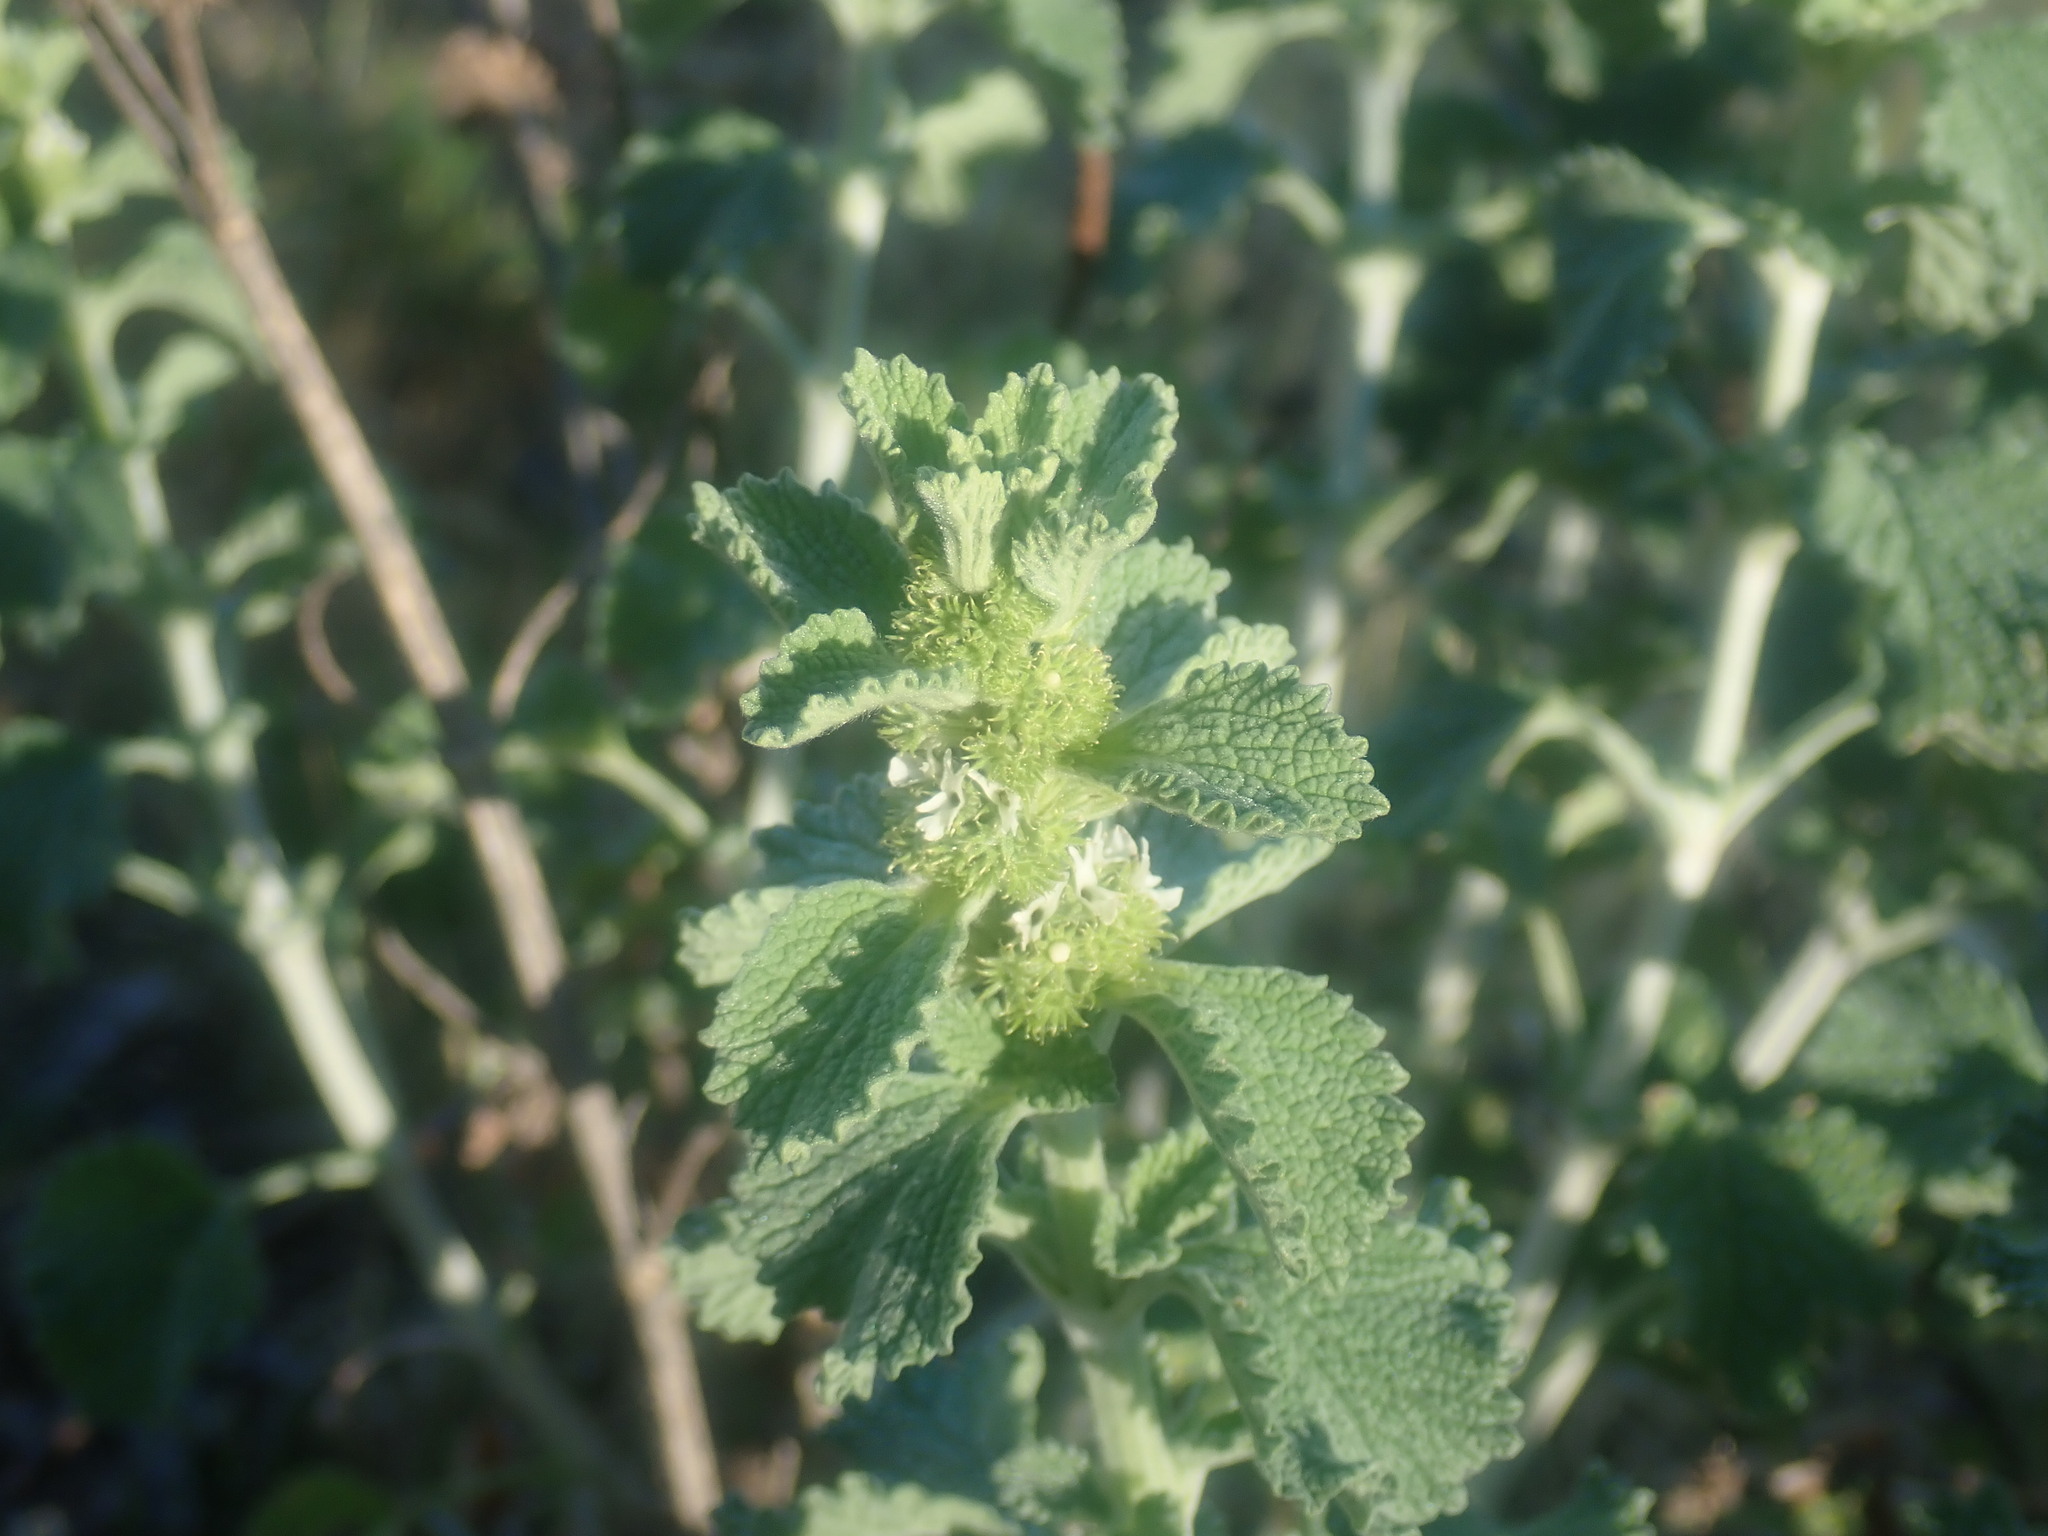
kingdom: Plantae
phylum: Tracheophyta
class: Magnoliopsida
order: Lamiales
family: Lamiaceae
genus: Marrubium
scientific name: Marrubium vulgare
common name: Horehound
